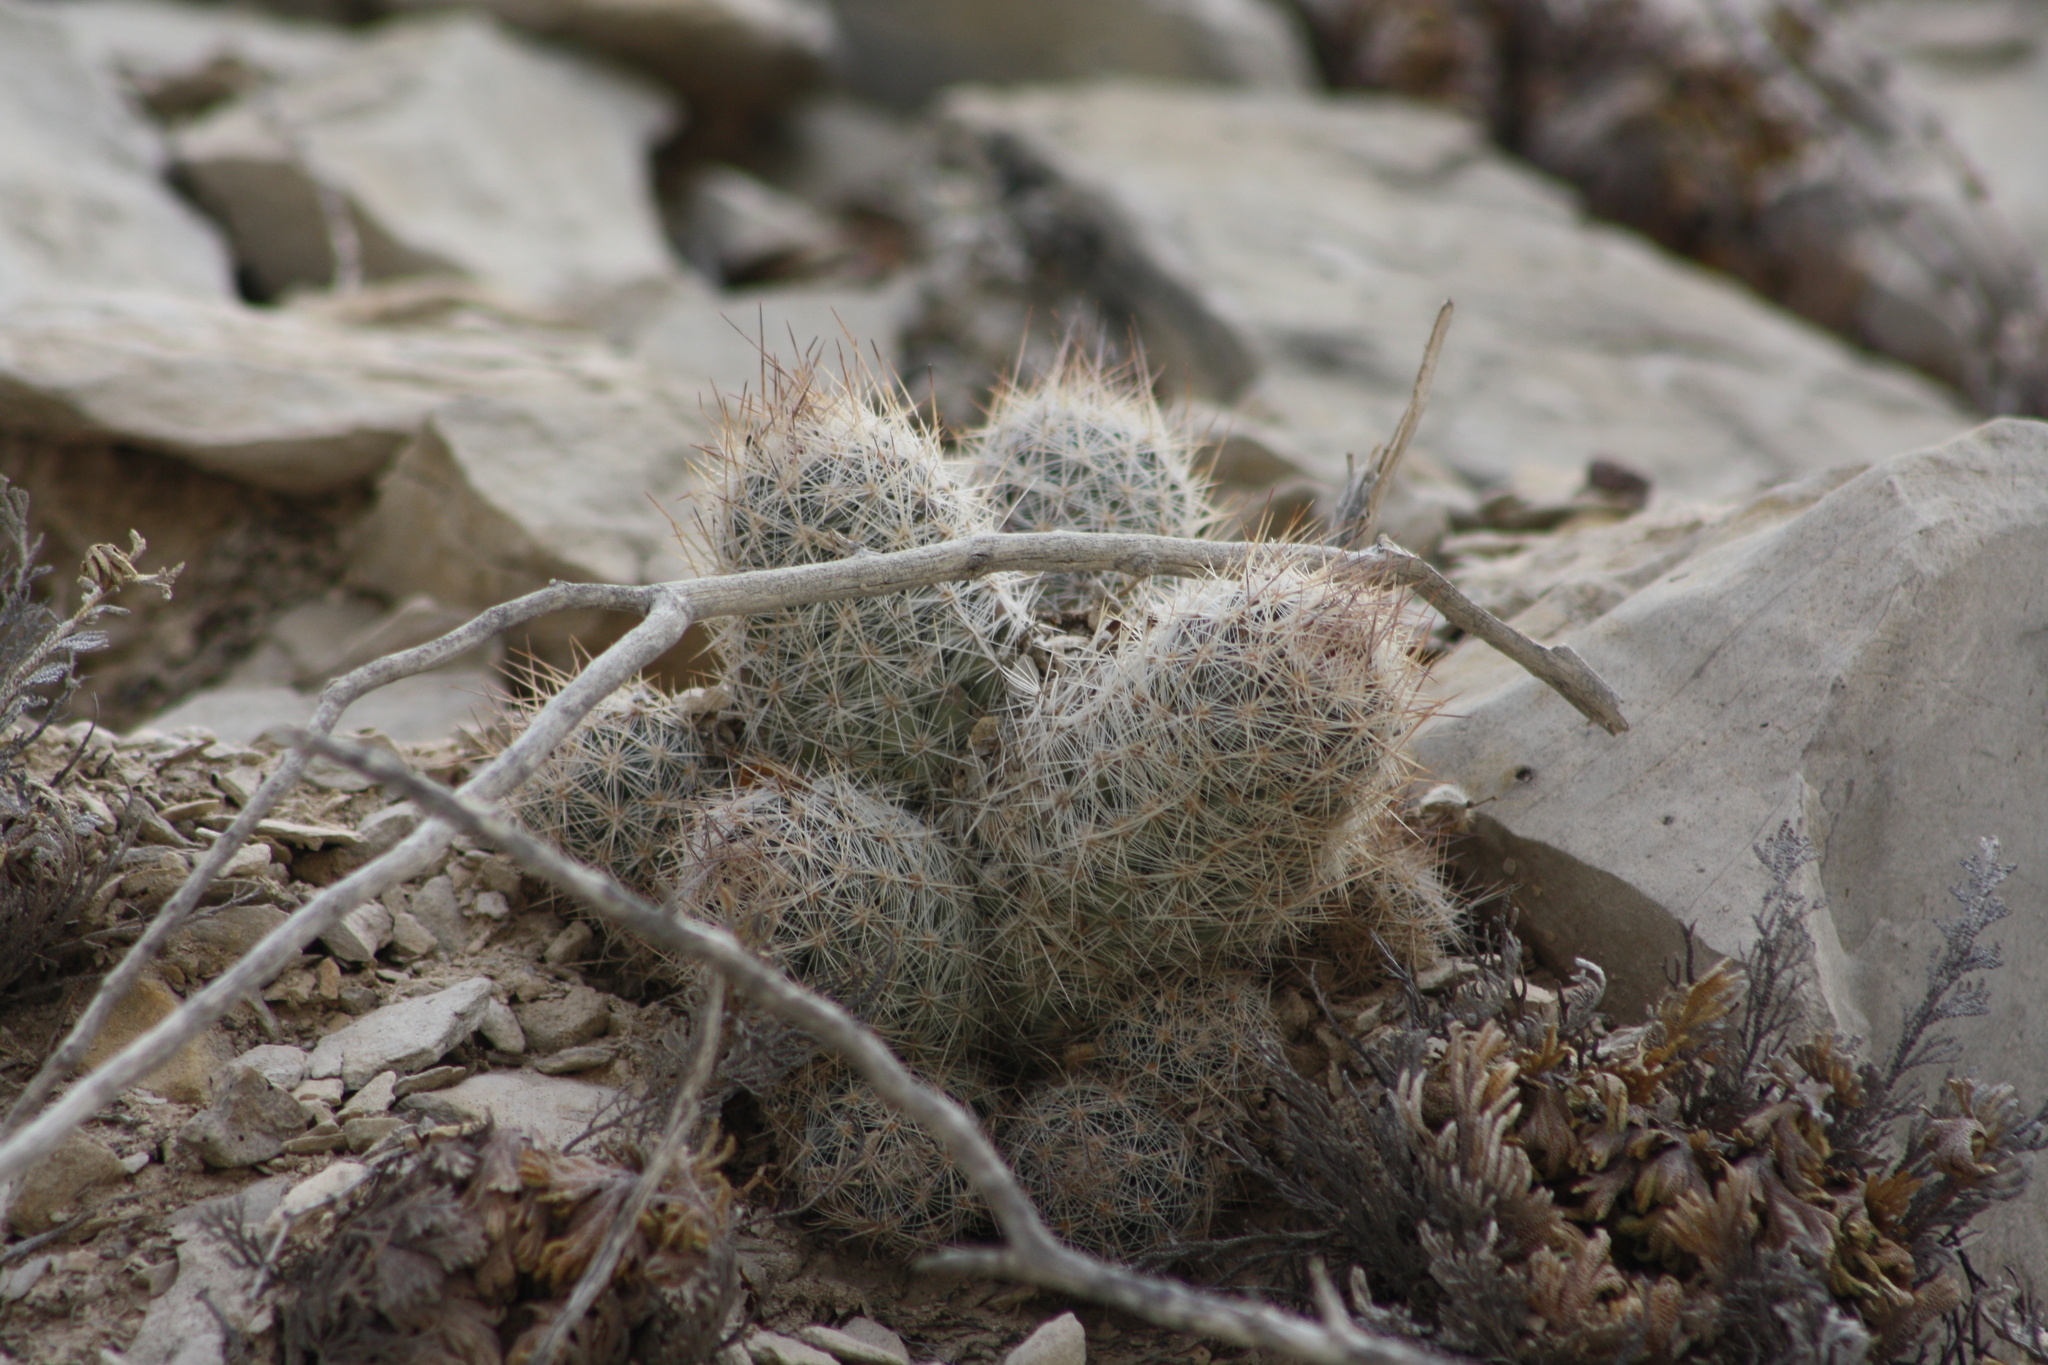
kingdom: Plantae
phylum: Tracheophyta
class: Magnoliopsida
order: Caryophyllales
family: Cactaceae
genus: Pelecyphora
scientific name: Pelecyphora tuberculosa
